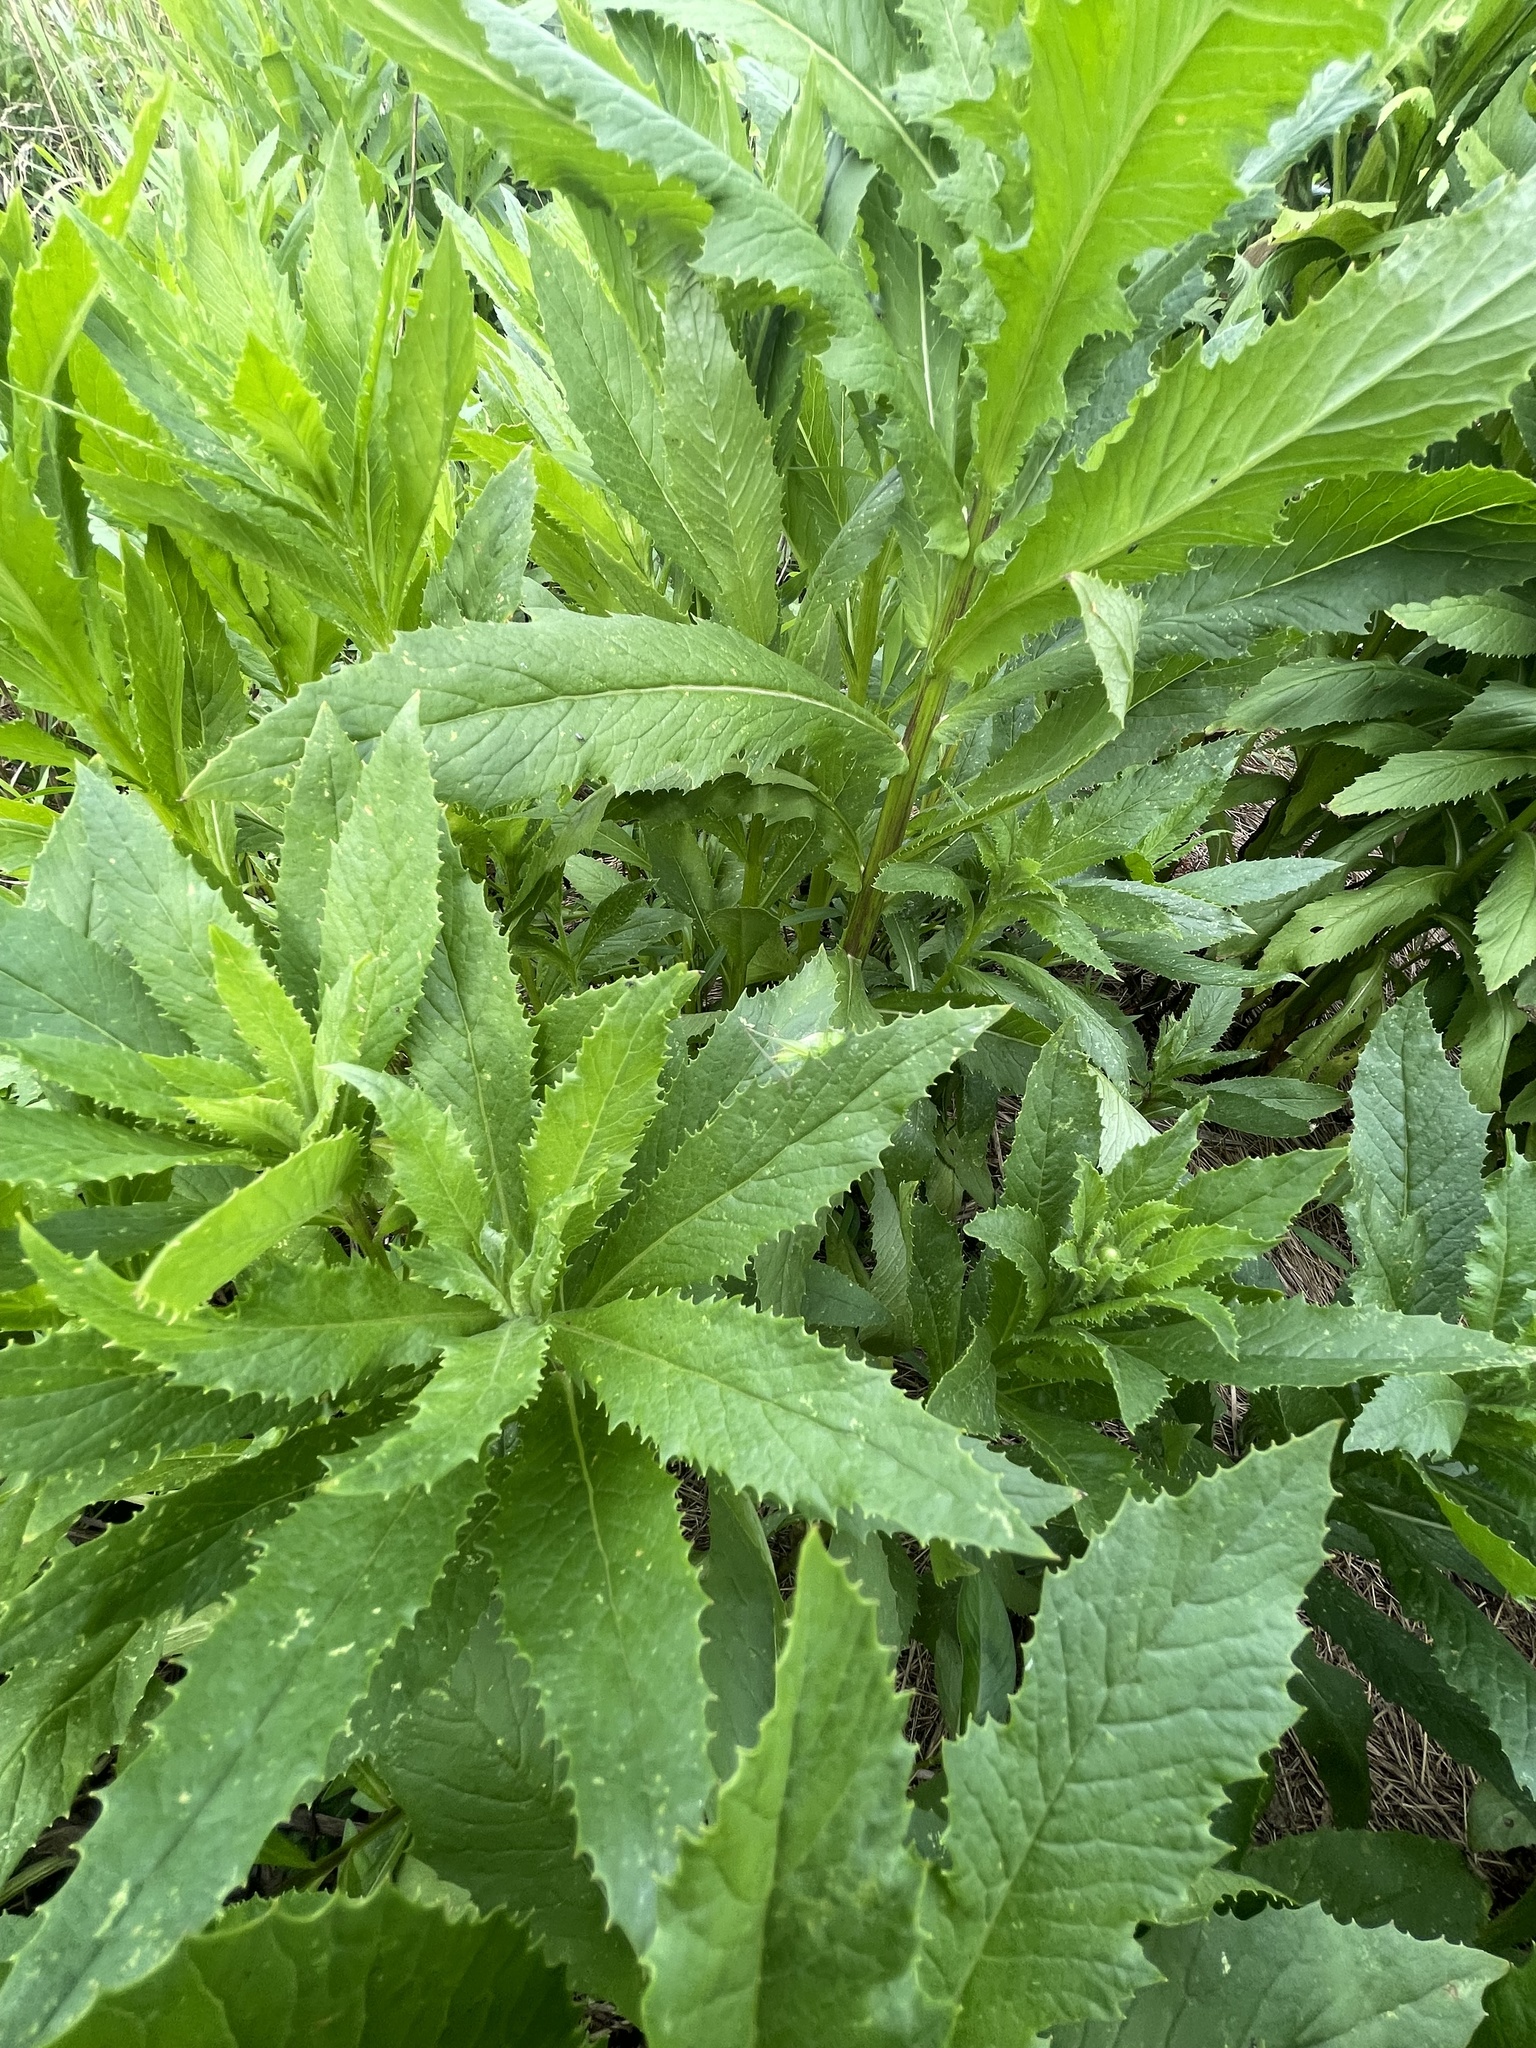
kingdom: Plantae
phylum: Tracheophyta
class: Magnoliopsida
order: Asterales
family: Asteraceae
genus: Erechtites
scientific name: Erechtites hieraciifolius
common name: American burnweed
